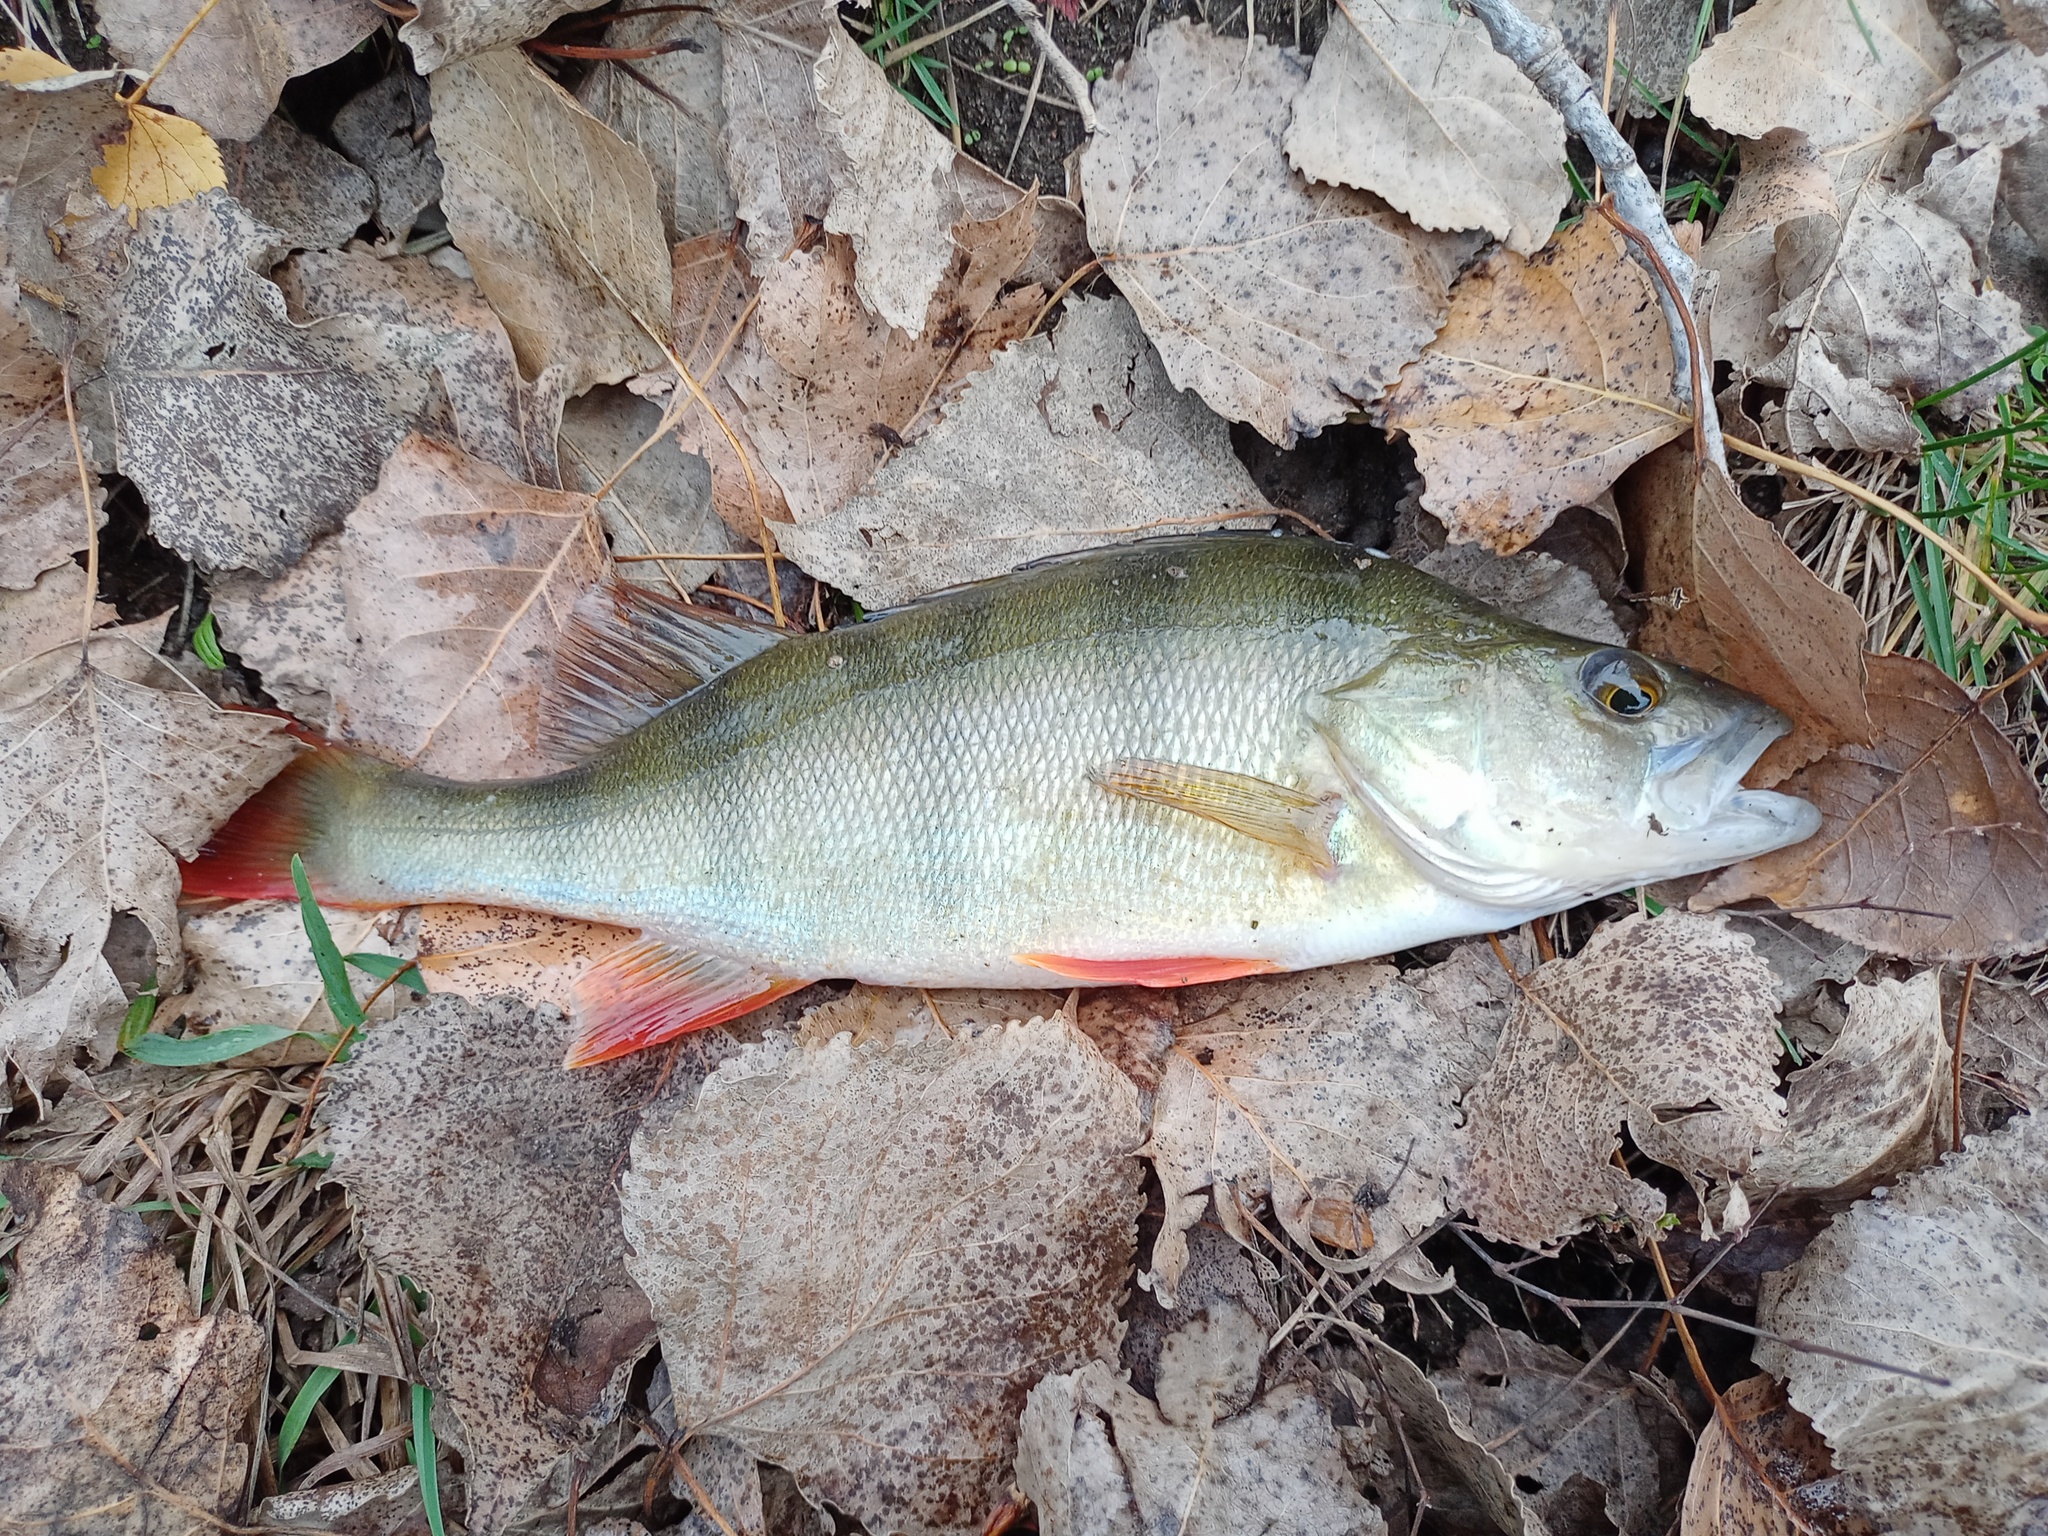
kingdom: Animalia
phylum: Chordata
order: Perciformes
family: Percidae
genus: Perca
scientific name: Perca fluviatilis
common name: Perch
